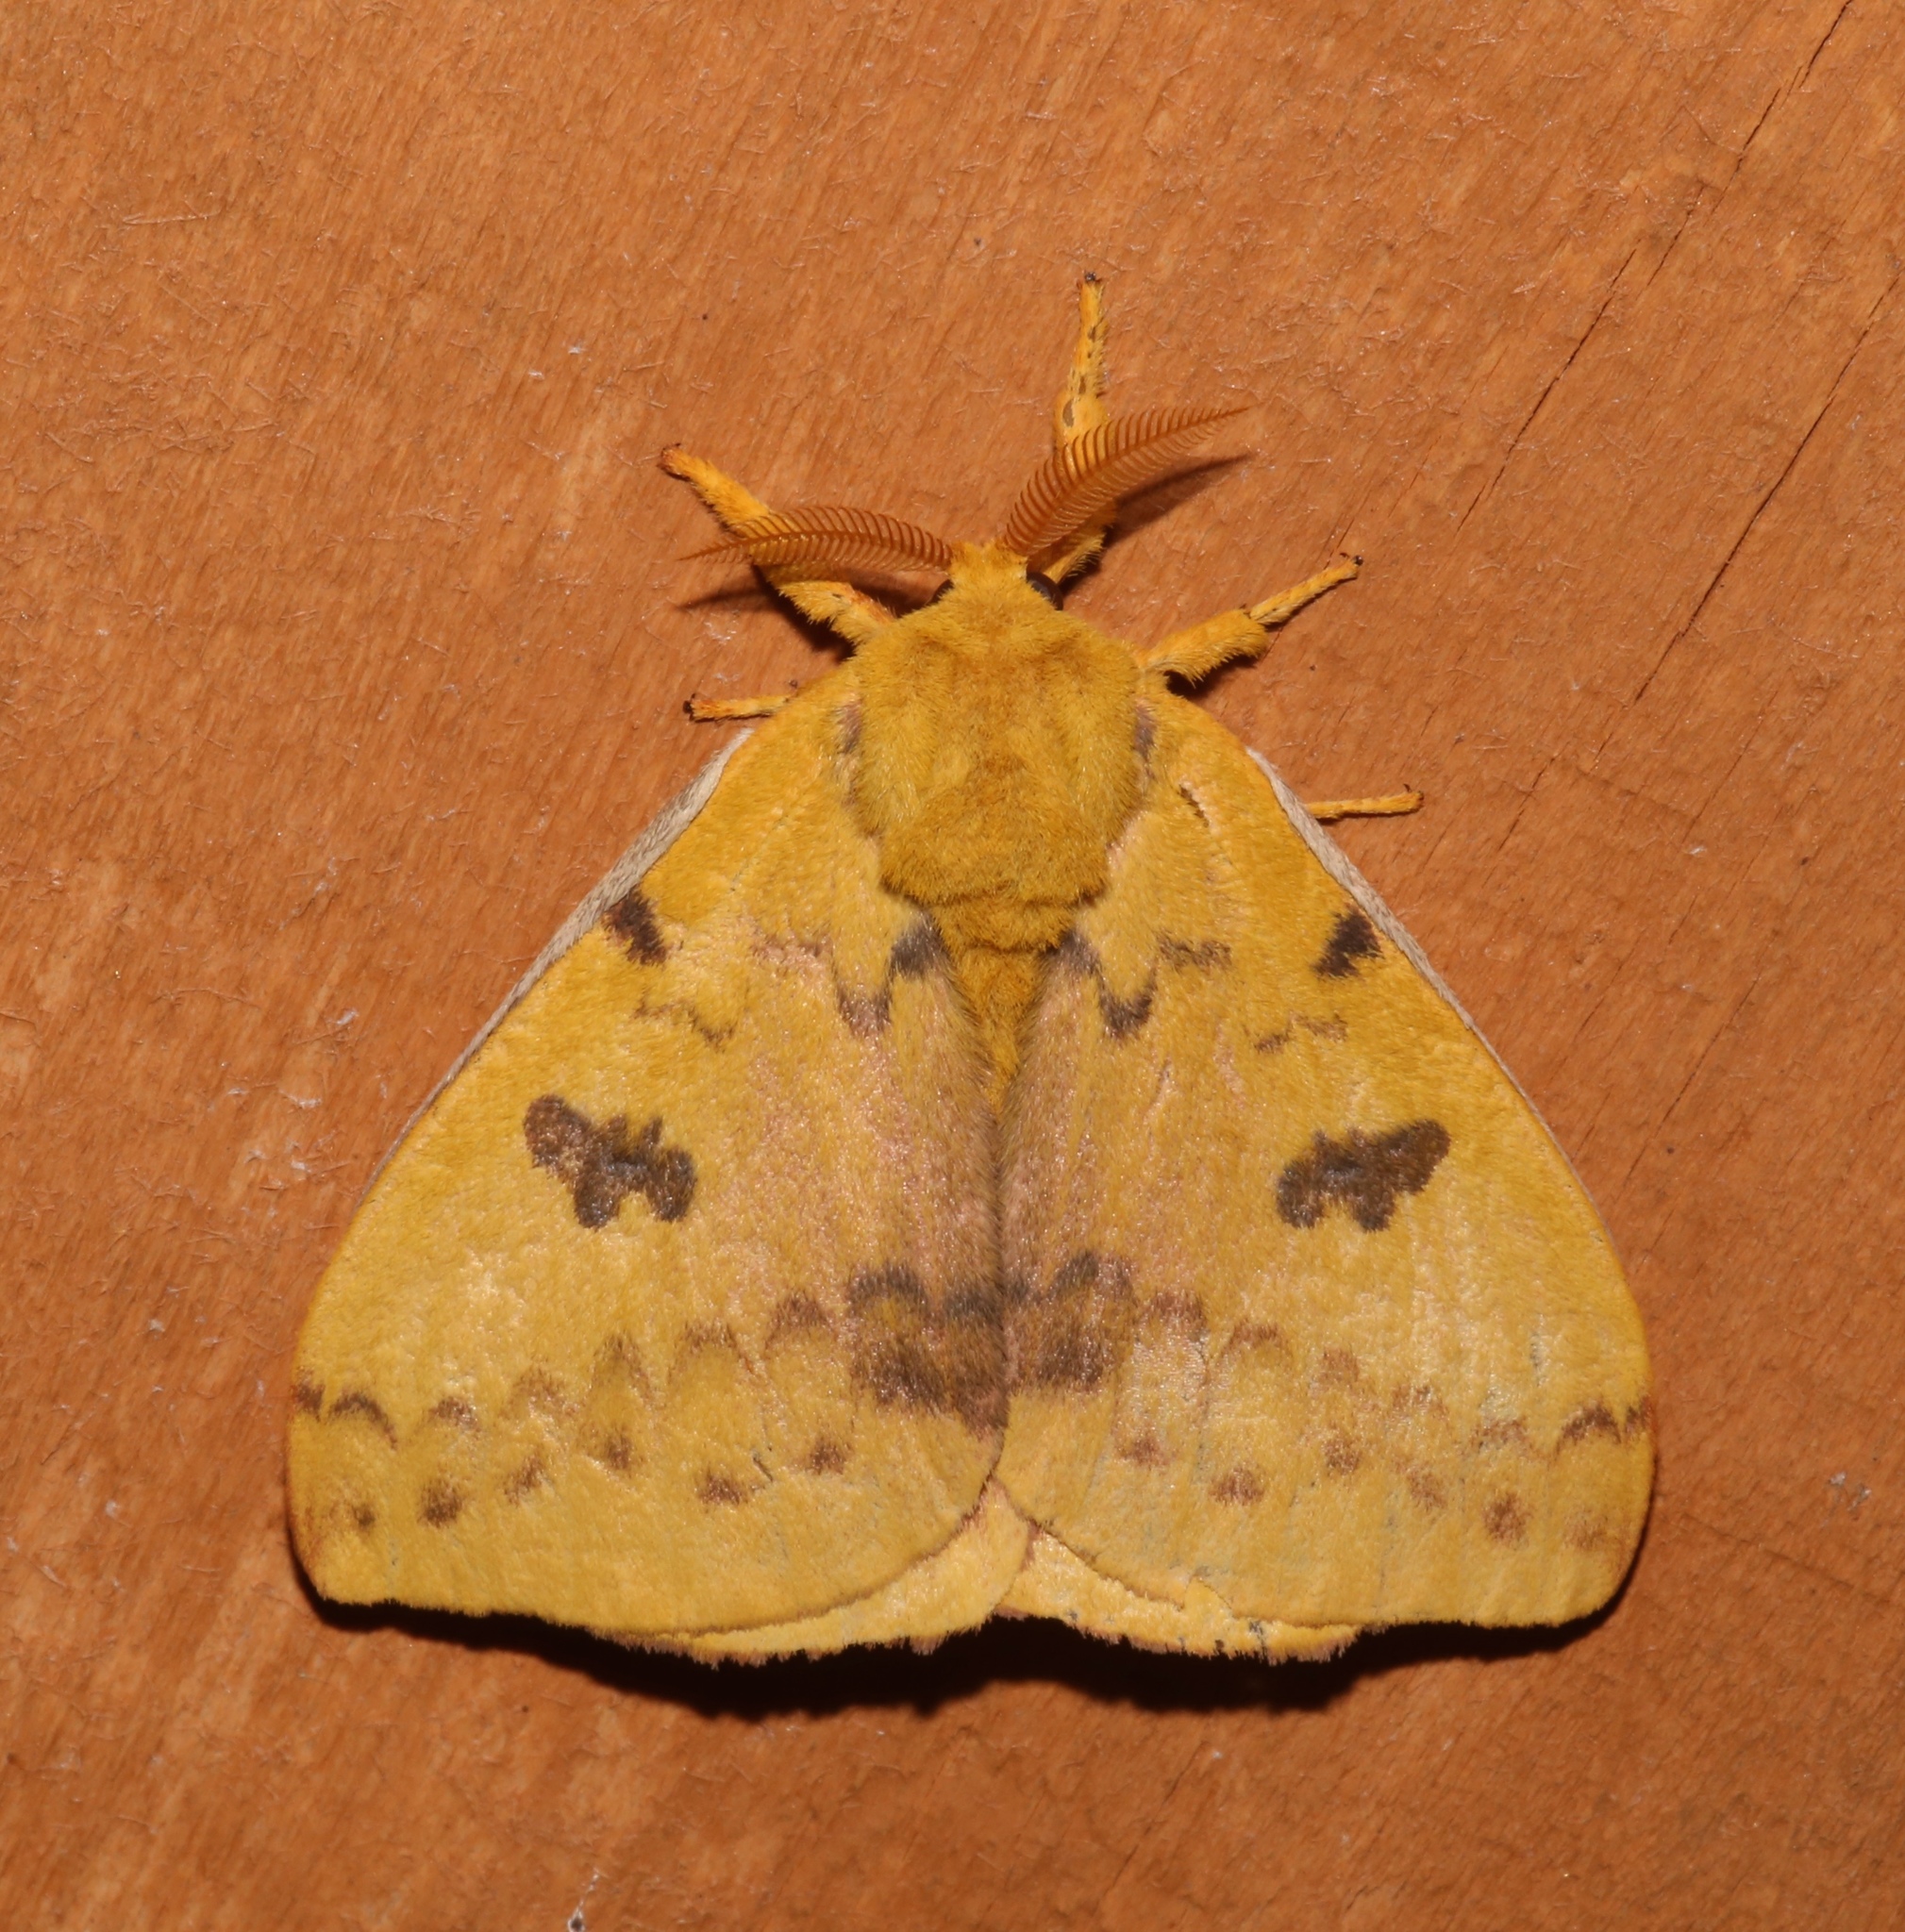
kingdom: Animalia
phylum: Arthropoda
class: Insecta
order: Lepidoptera
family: Saturniidae
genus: Automeris
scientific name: Automeris io
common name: Io moth
